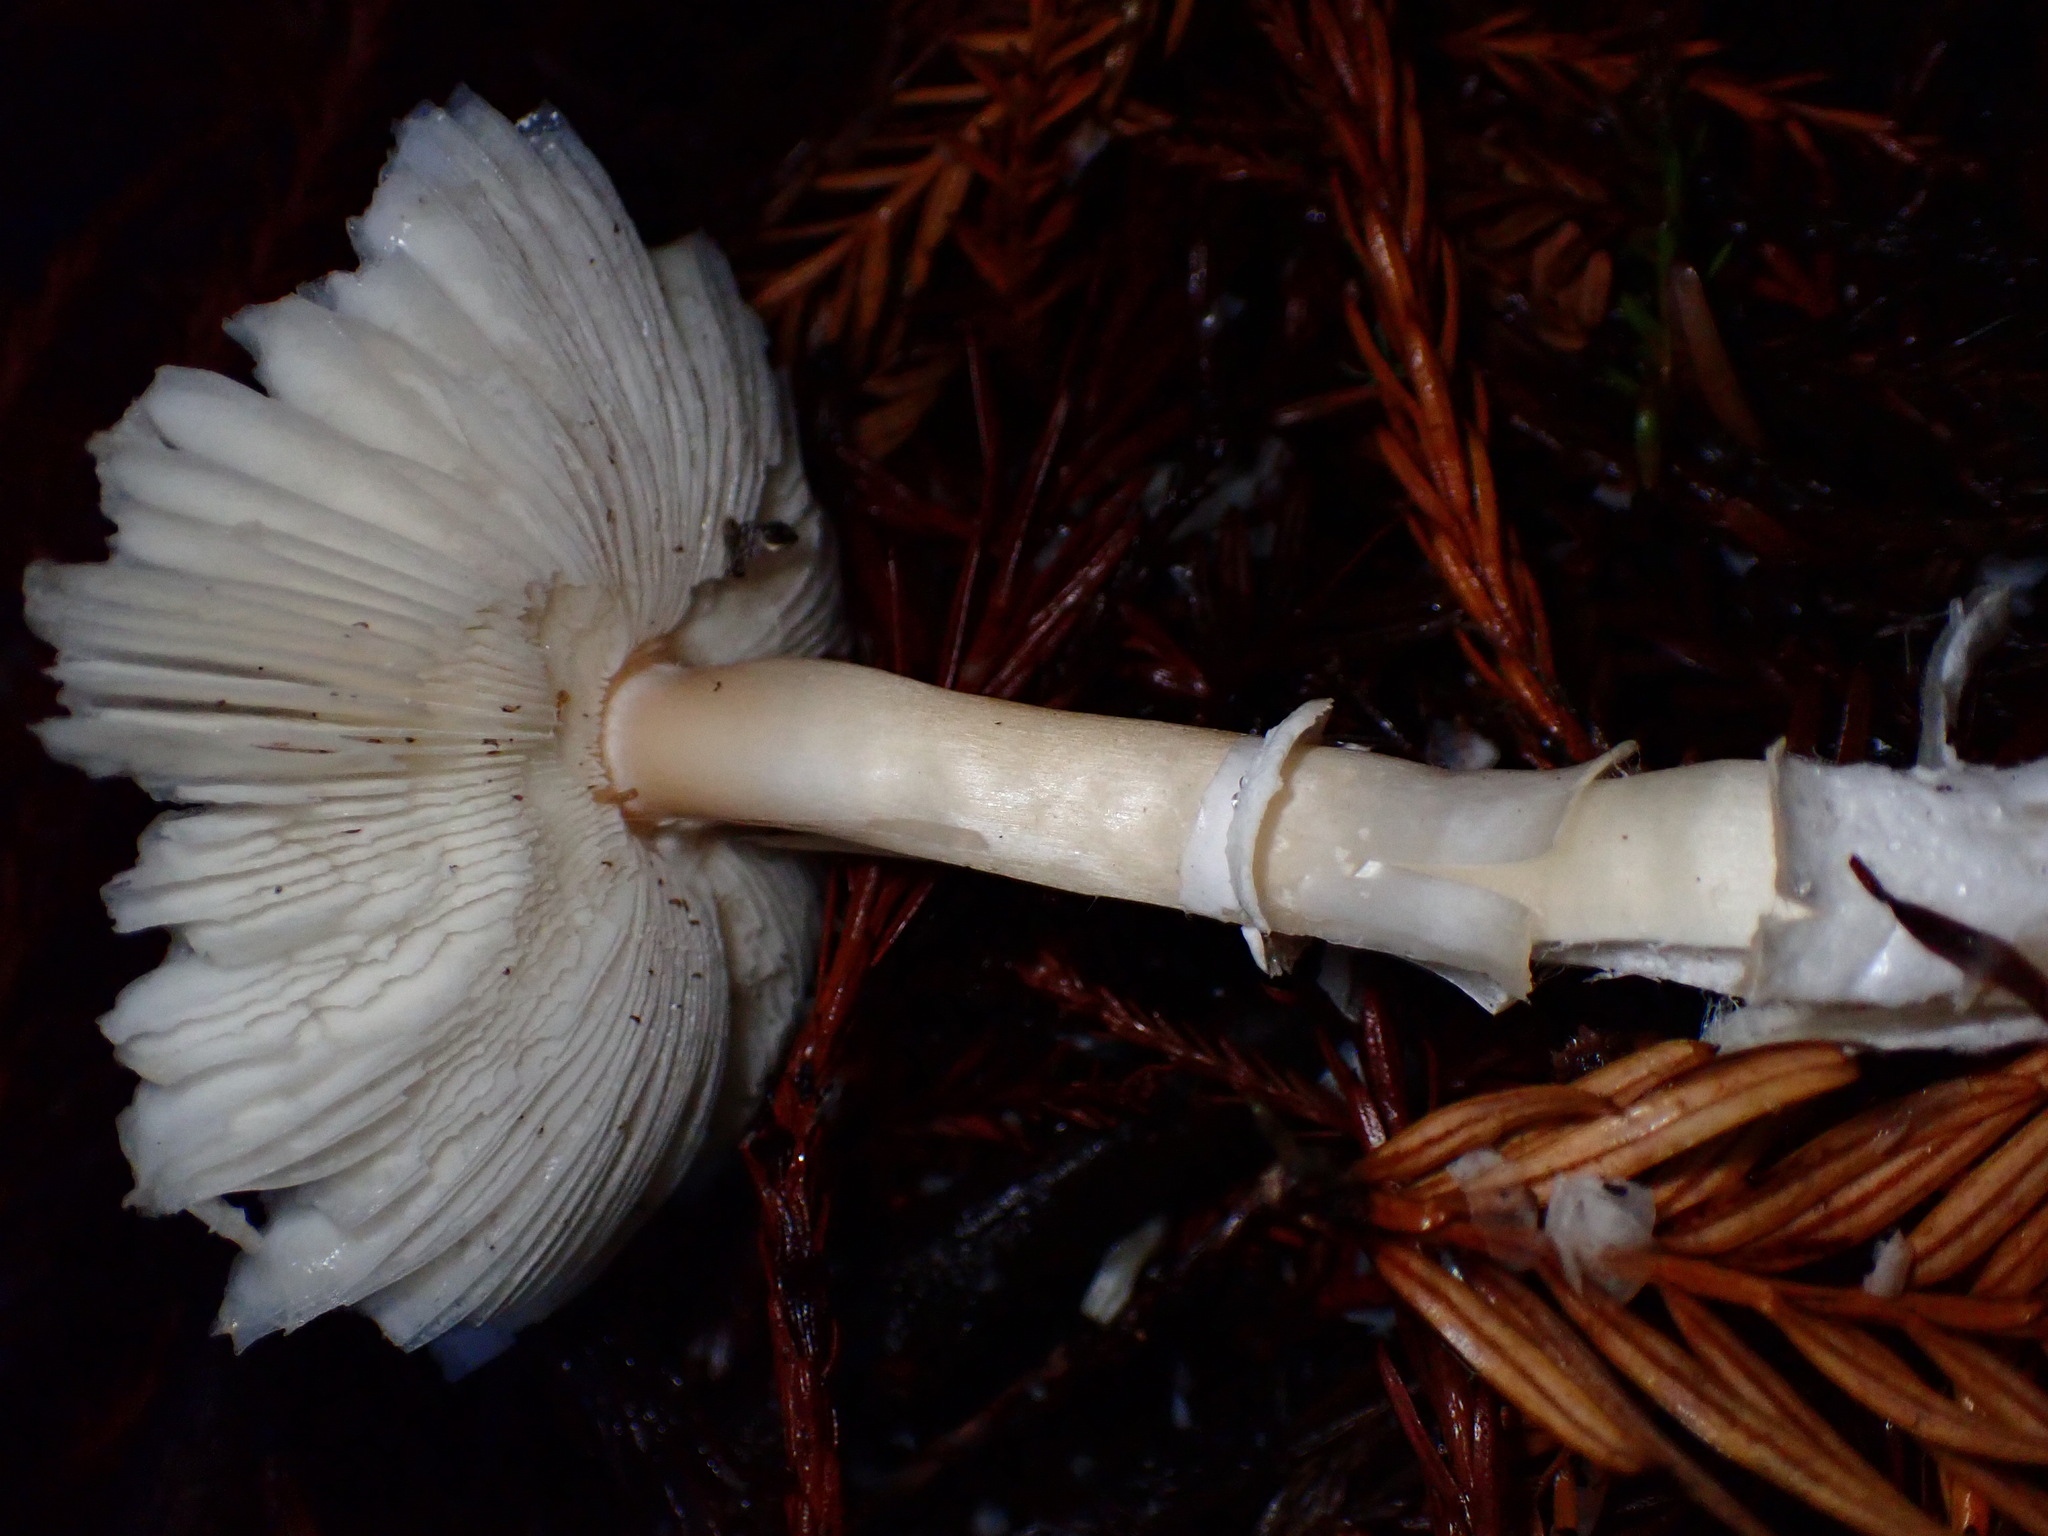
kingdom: Fungi
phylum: Basidiomycota
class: Agaricomycetes
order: Agaricales
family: Agaricaceae
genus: Leucoagaricus
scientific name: Leucoagaricus rubrotinctus
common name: Ruby dapperling
